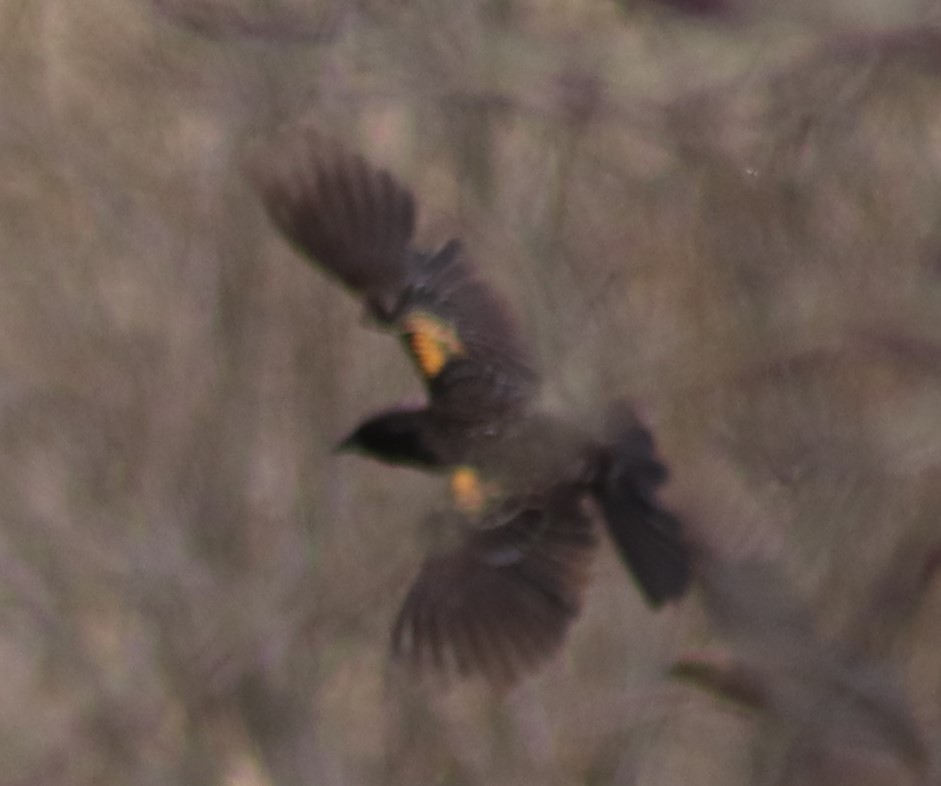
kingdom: Animalia
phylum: Chordata
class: Aves
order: Passeriformes
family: Icteridae
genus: Agelaius
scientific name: Agelaius phoeniceus
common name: Red-winged blackbird
